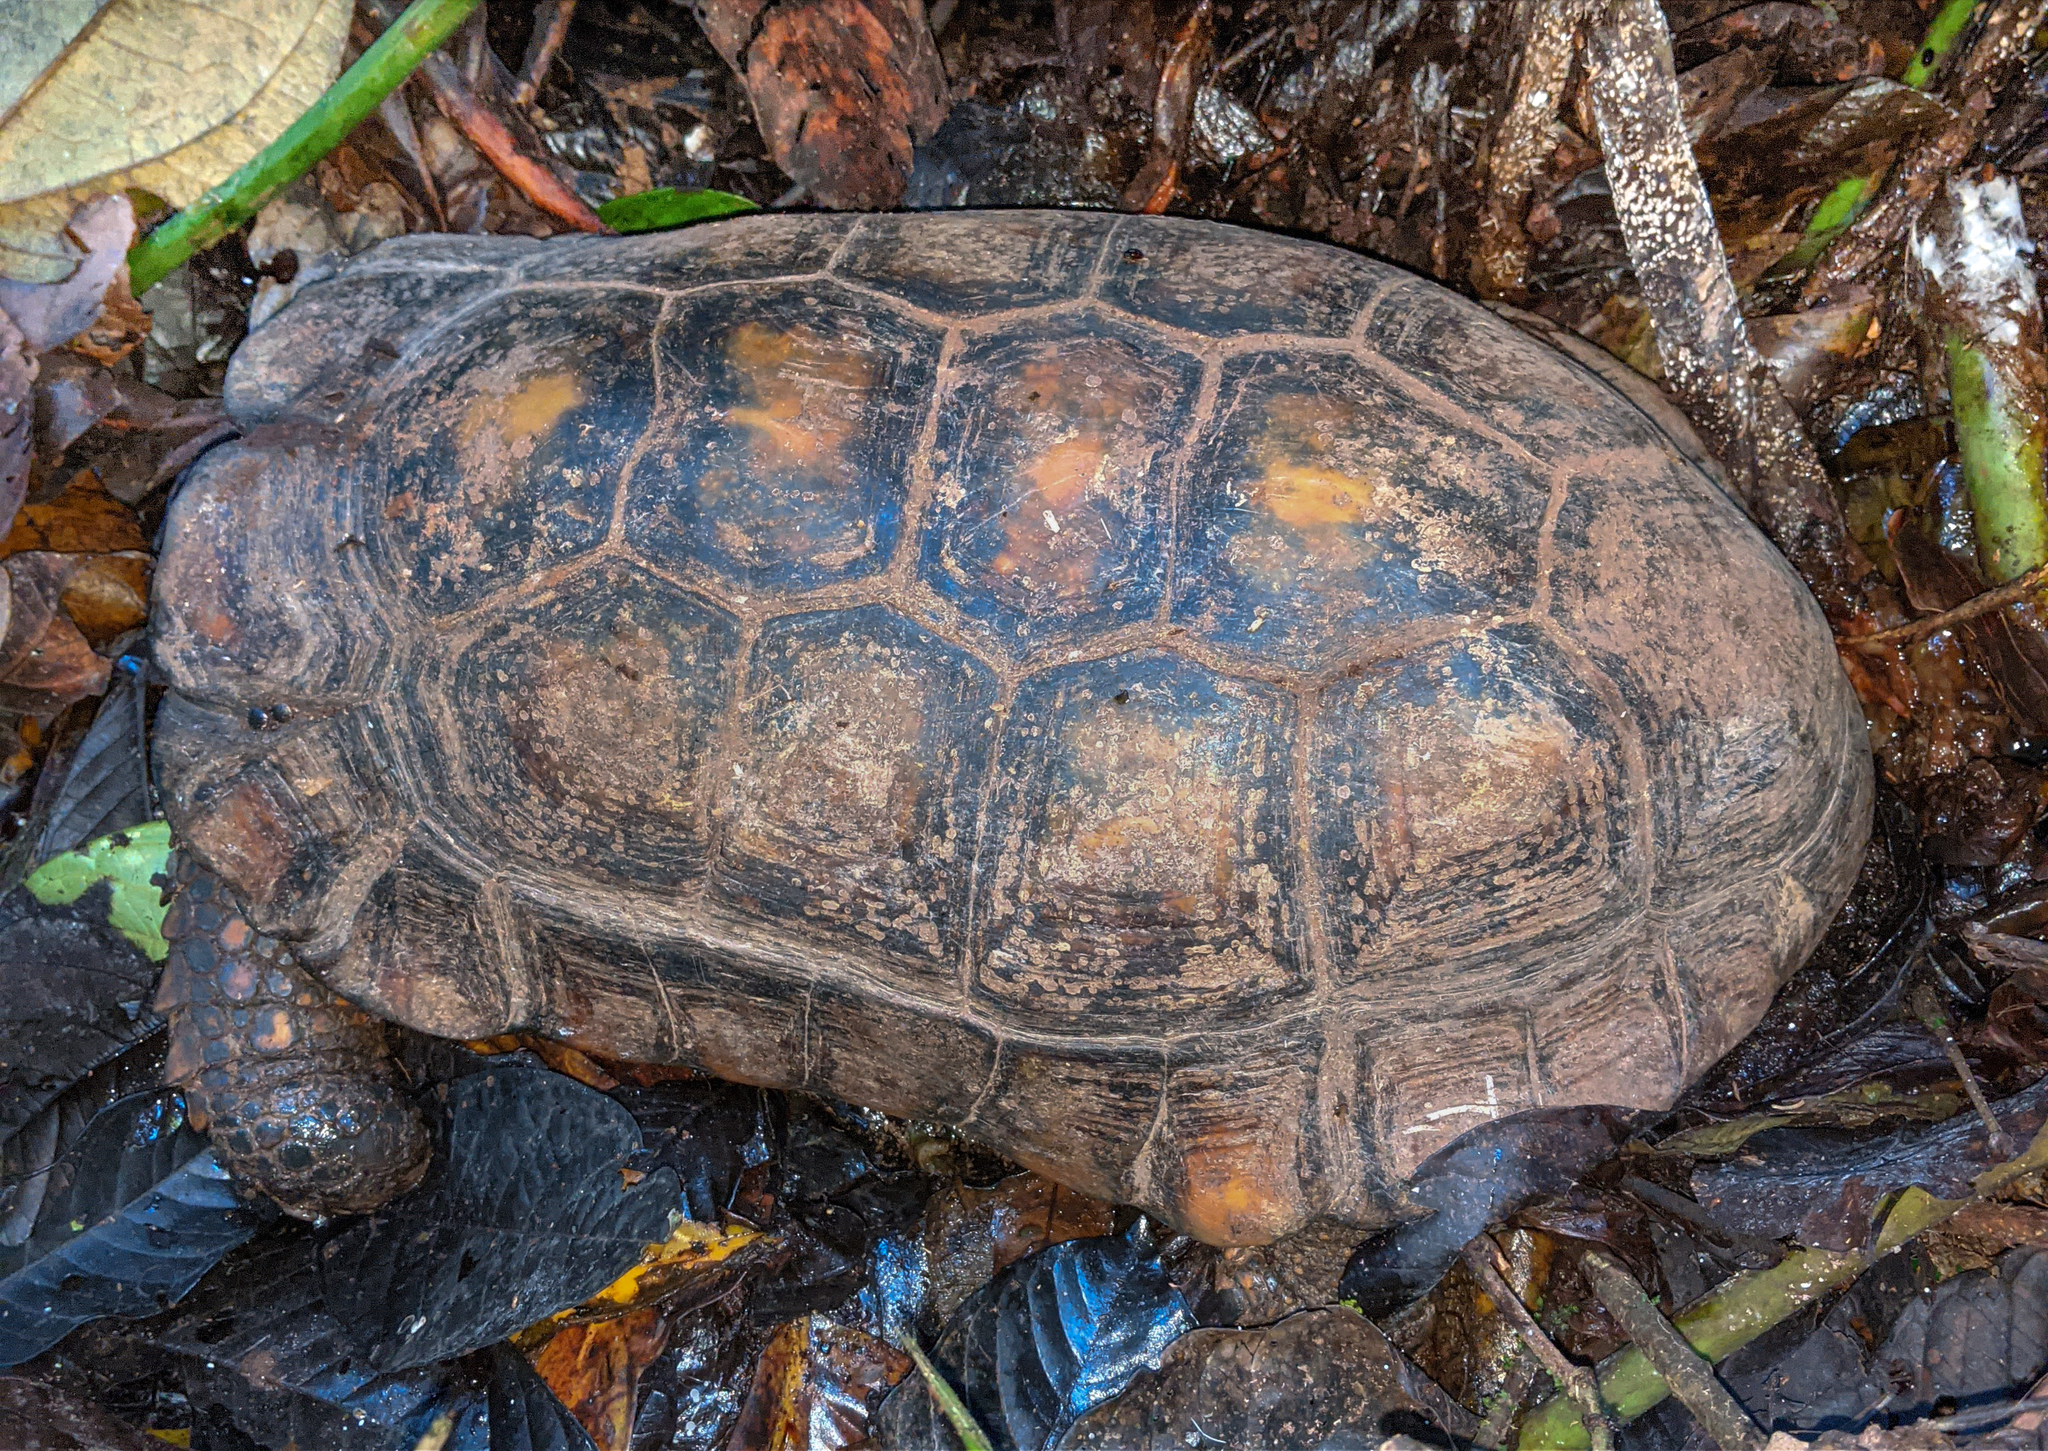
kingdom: Animalia
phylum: Chordata
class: Testudines
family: Testudinidae
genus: Chelonoidis
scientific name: Chelonoidis denticulatus
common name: Yellow-footed tortoise
